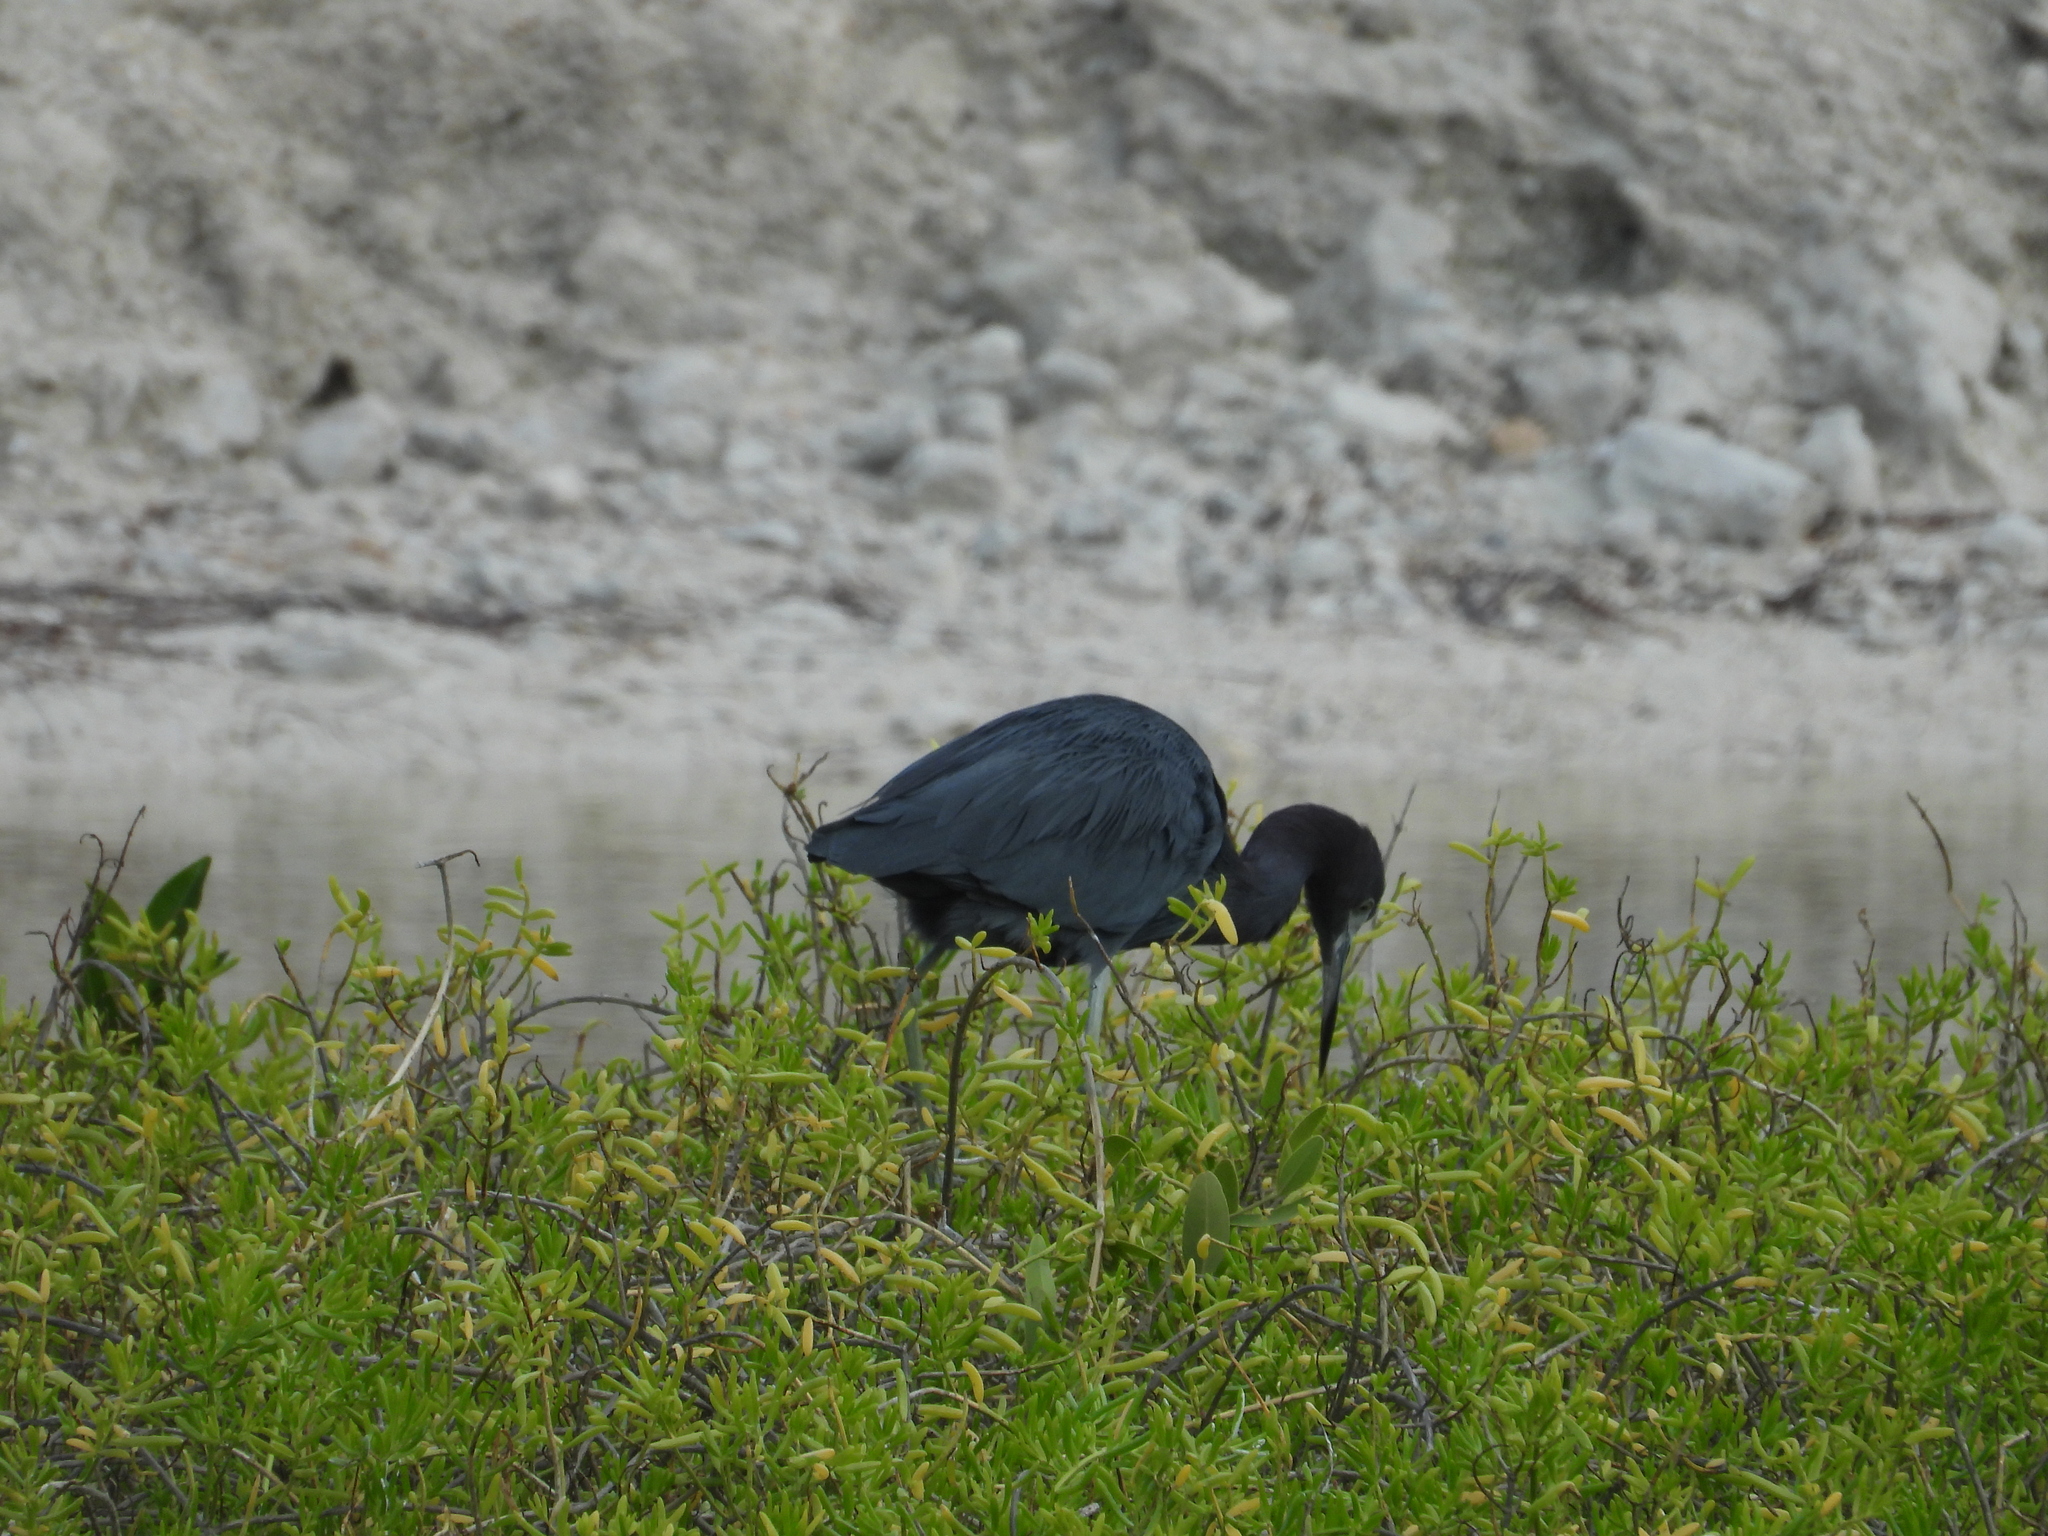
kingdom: Animalia
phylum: Chordata
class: Aves
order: Pelecaniformes
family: Ardeidae
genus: Egretta
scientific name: Egretta caerulea
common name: Little blue heron
